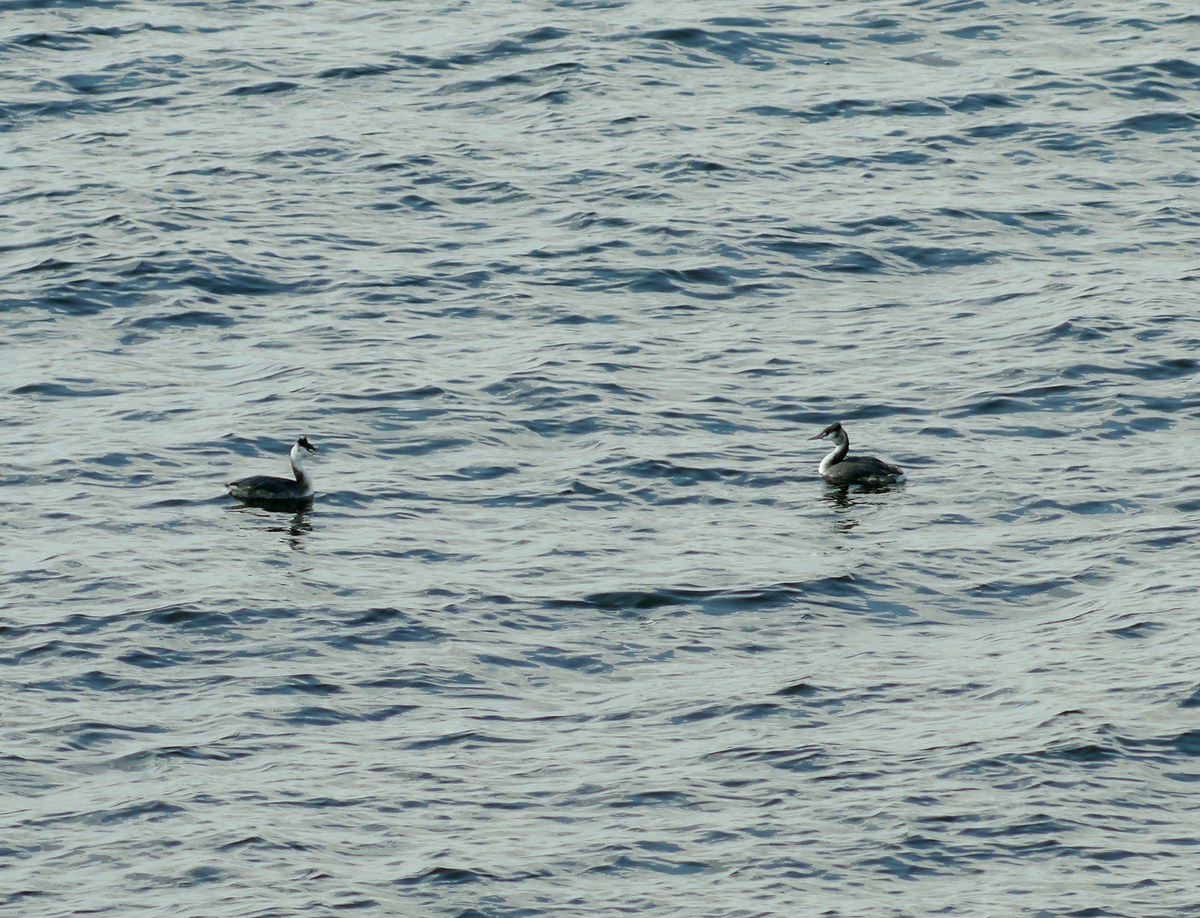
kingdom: Animalia
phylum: Chordata
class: Aves
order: Podicipediformes
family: Podicipedidae
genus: Podiceps
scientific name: Podiceps cristatus
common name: Great crested grebe
